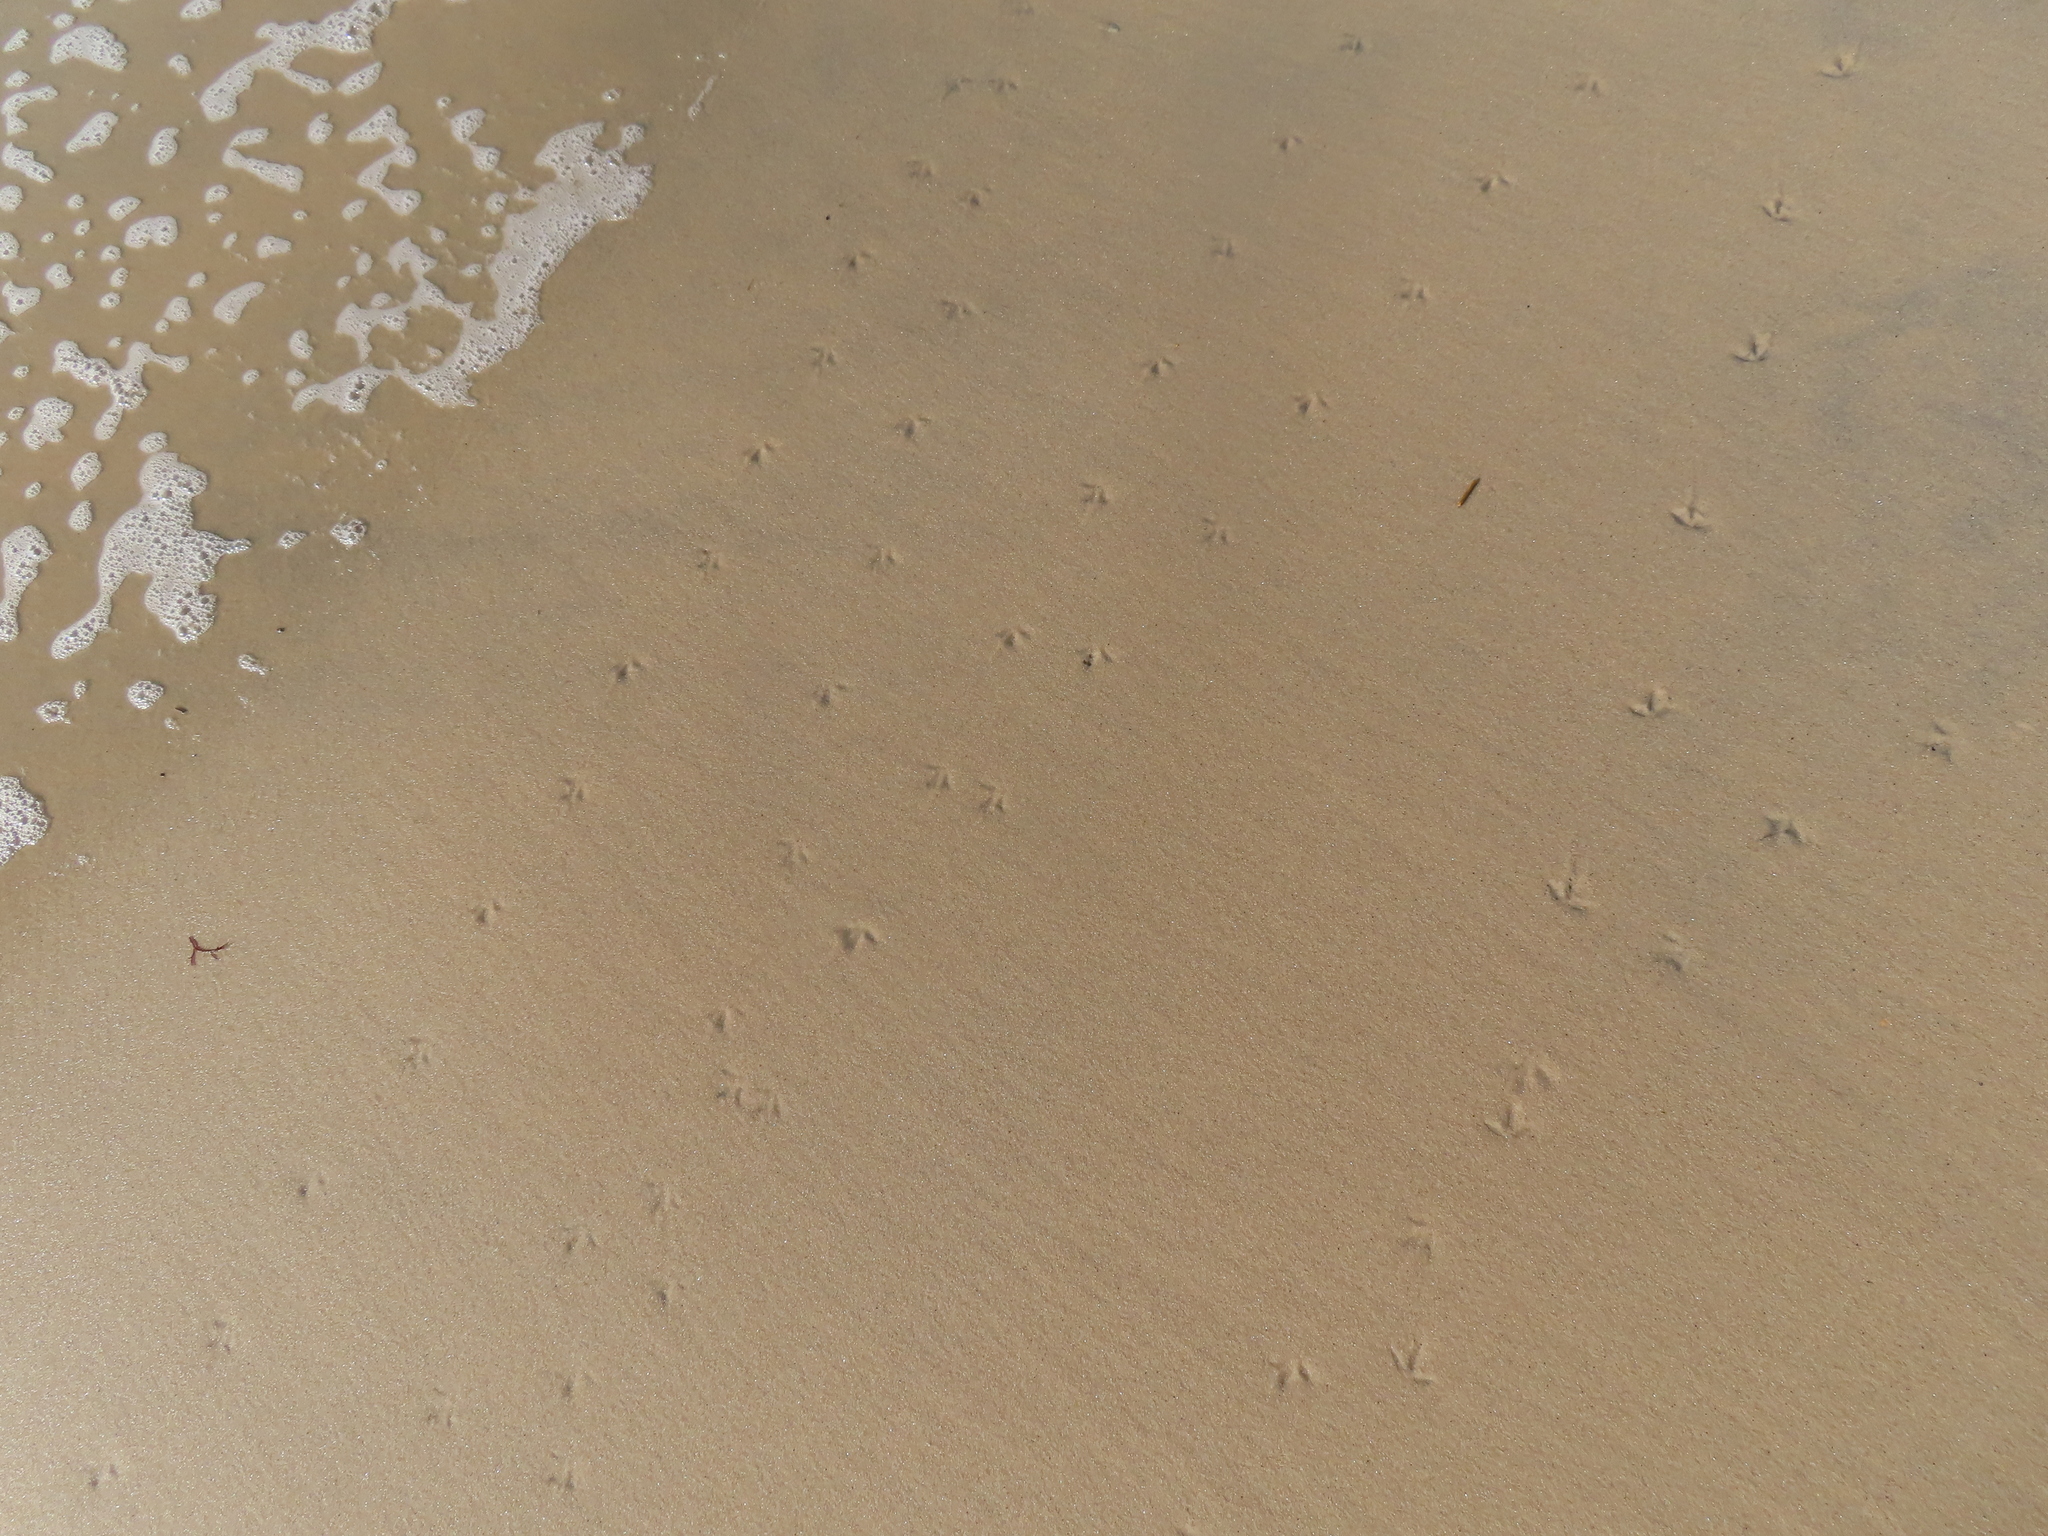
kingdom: Animalia
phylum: Chordata
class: Aves
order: Charadriiformes
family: Scolopacidae
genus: Calidris
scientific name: Calidris alba
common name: Sanderling
